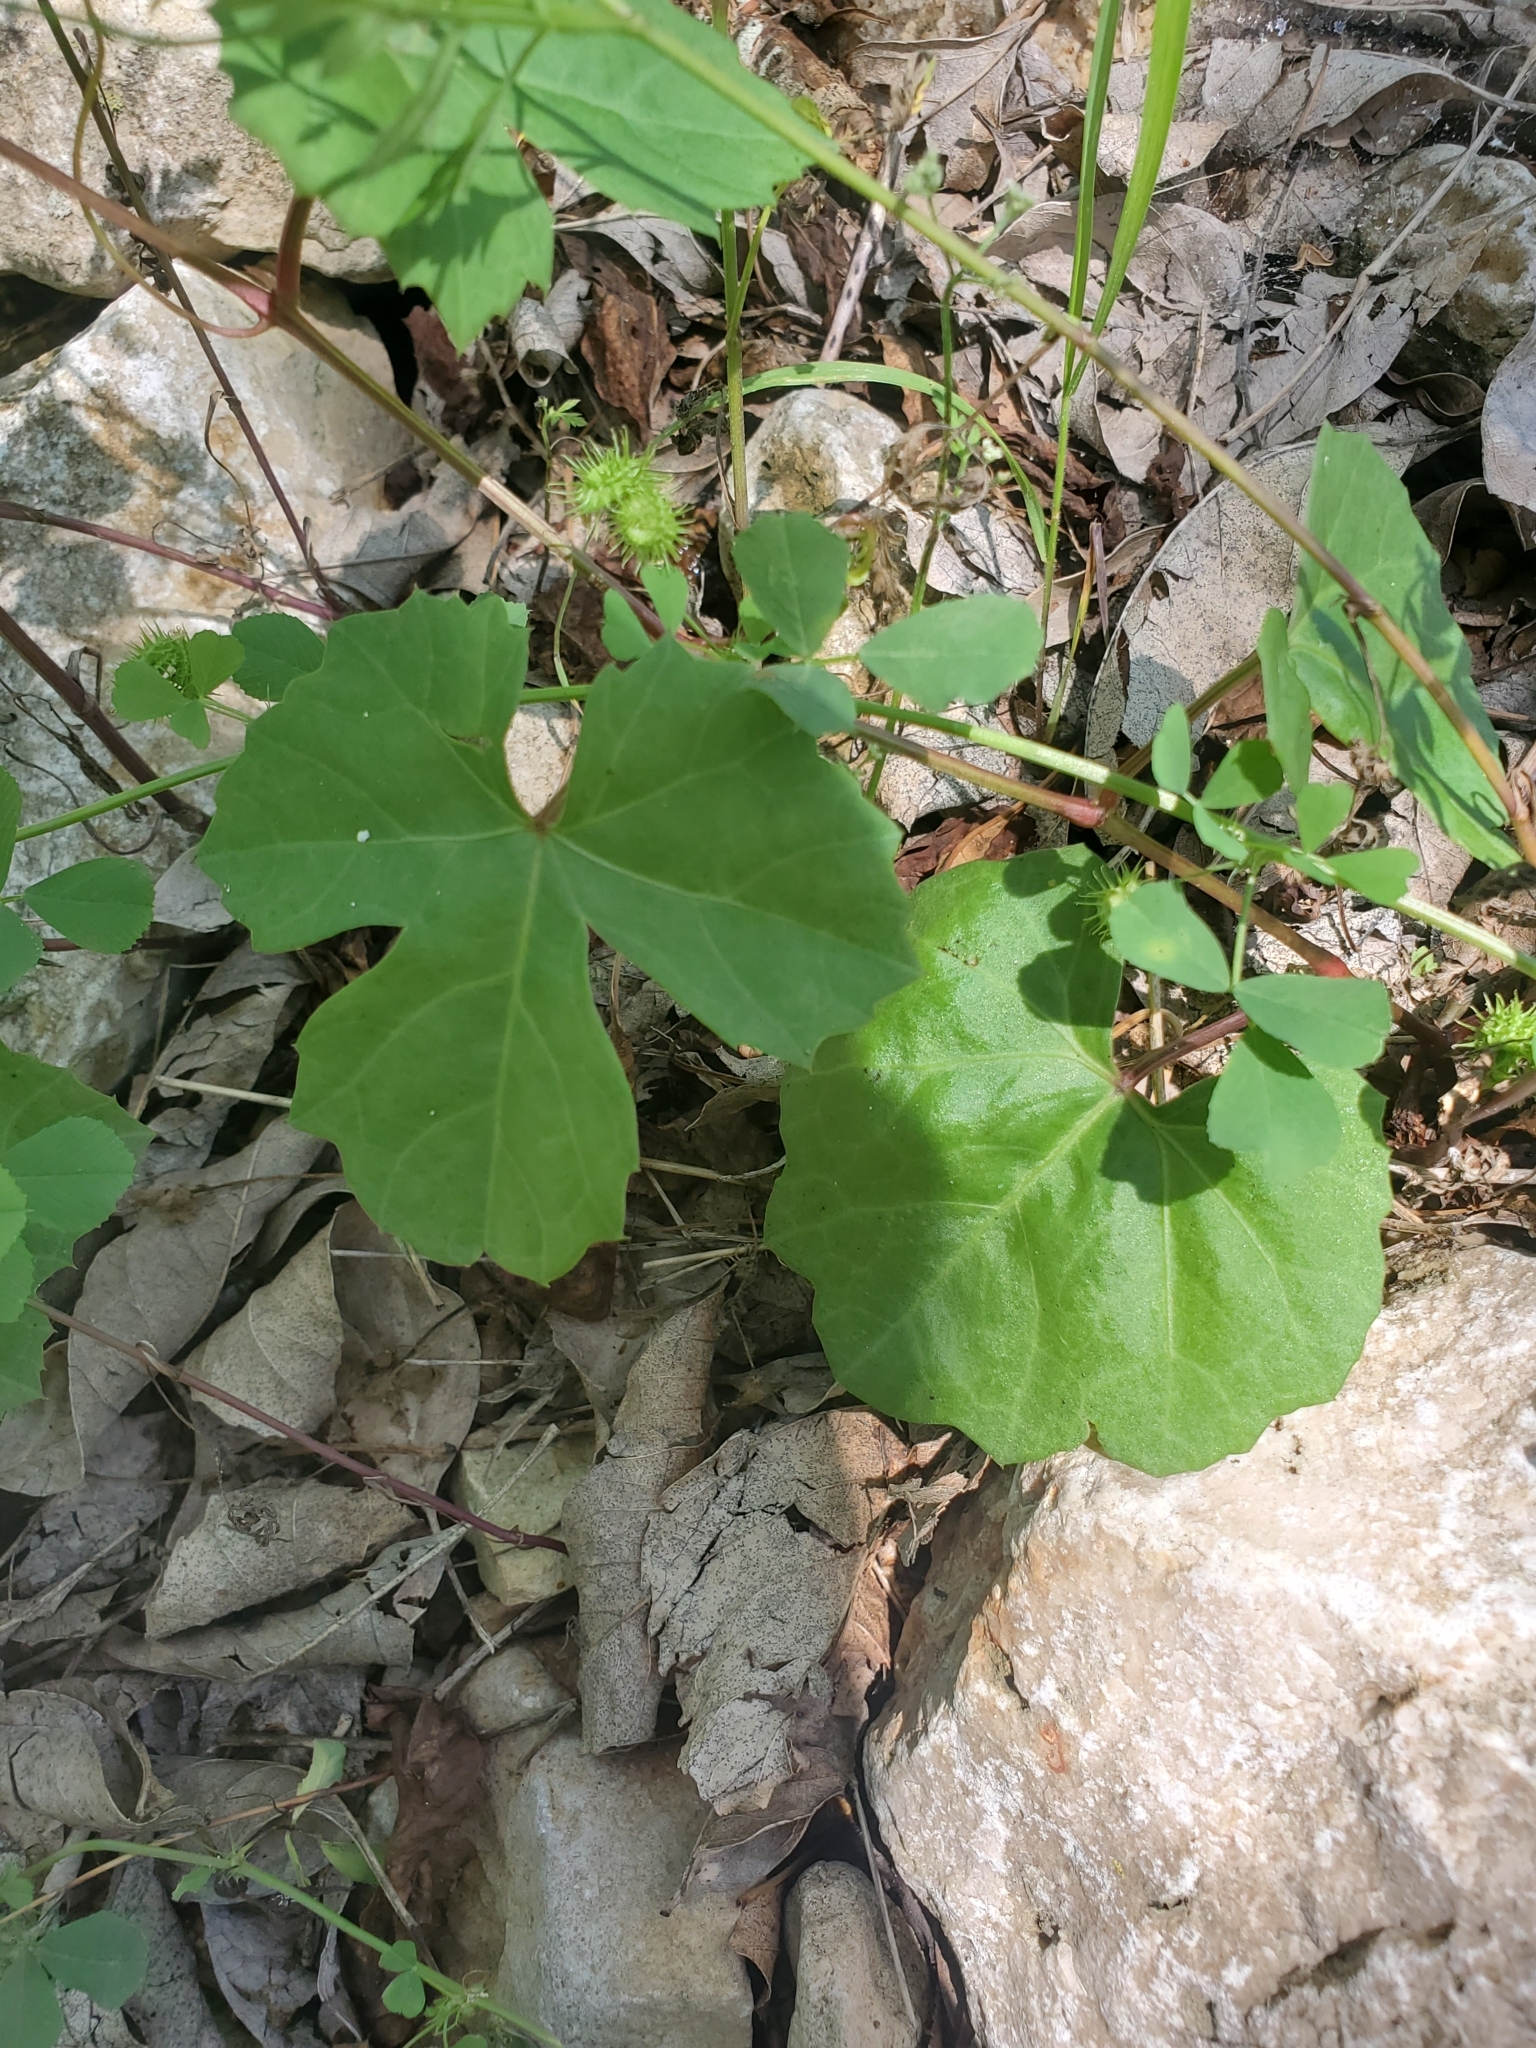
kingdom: Plantae
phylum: Tracheophyta
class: Magnoliopsida
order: Vitales
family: Vitaceae
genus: Cissus
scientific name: Cissus trifoliata
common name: Vine-sorrel
